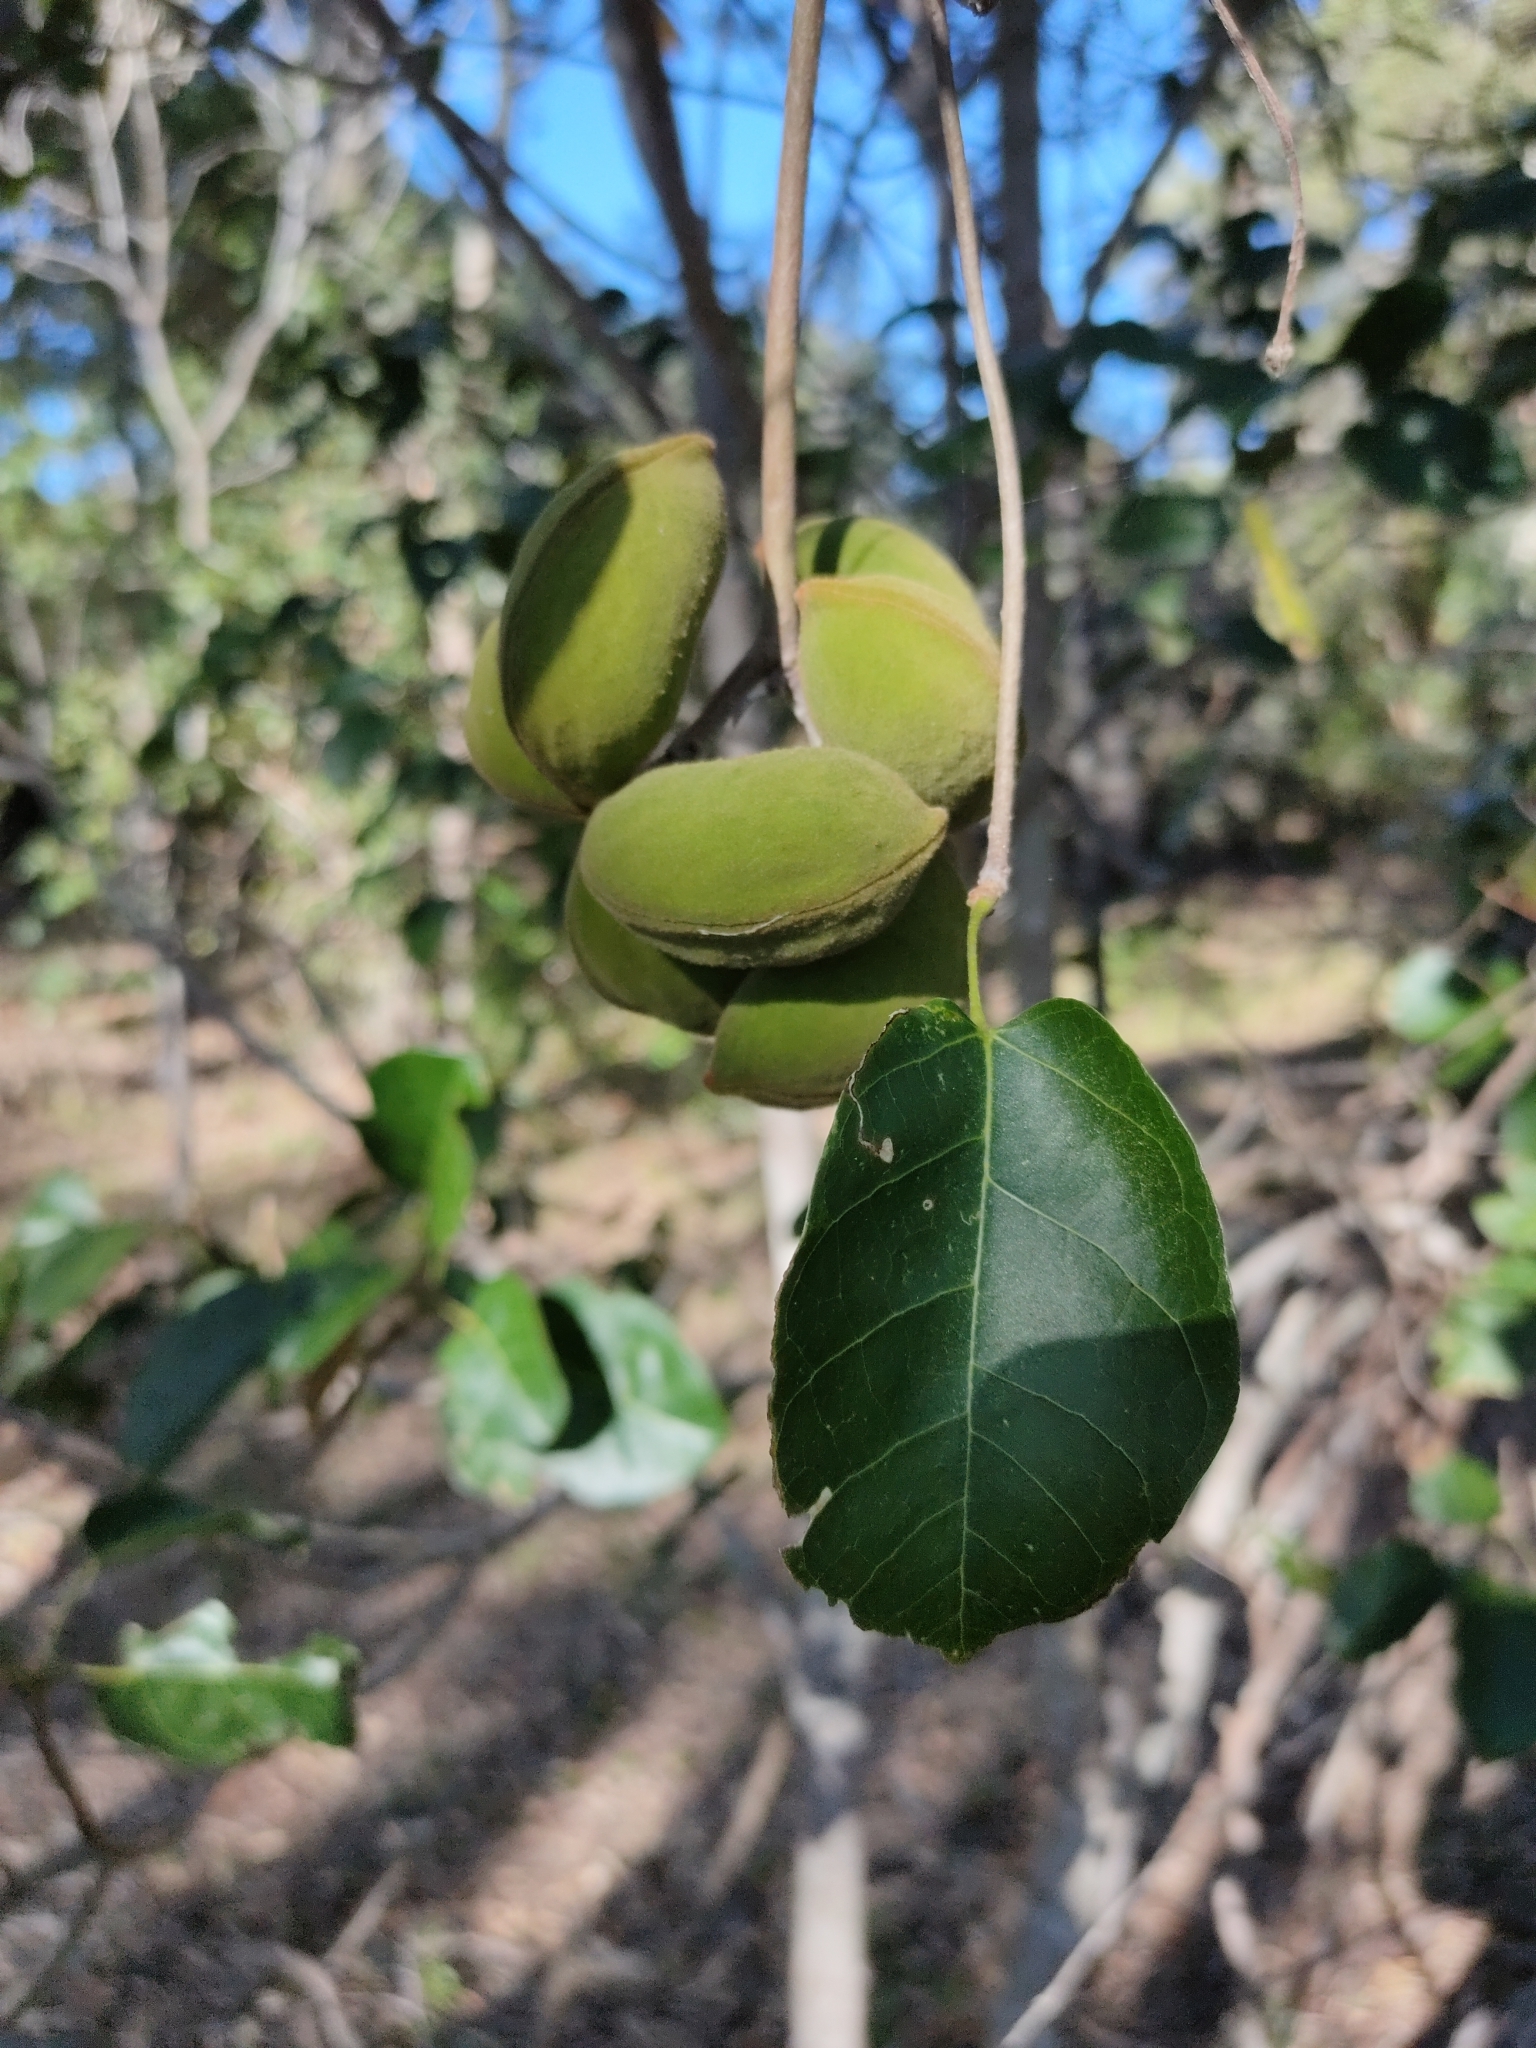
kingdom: Plantae
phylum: Tracheophyta
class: Magnoliopsida
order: Malvales
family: Malvaceae
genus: Sterculia
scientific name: Sterculia quadrifida
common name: Orange-fruit kurrajong
